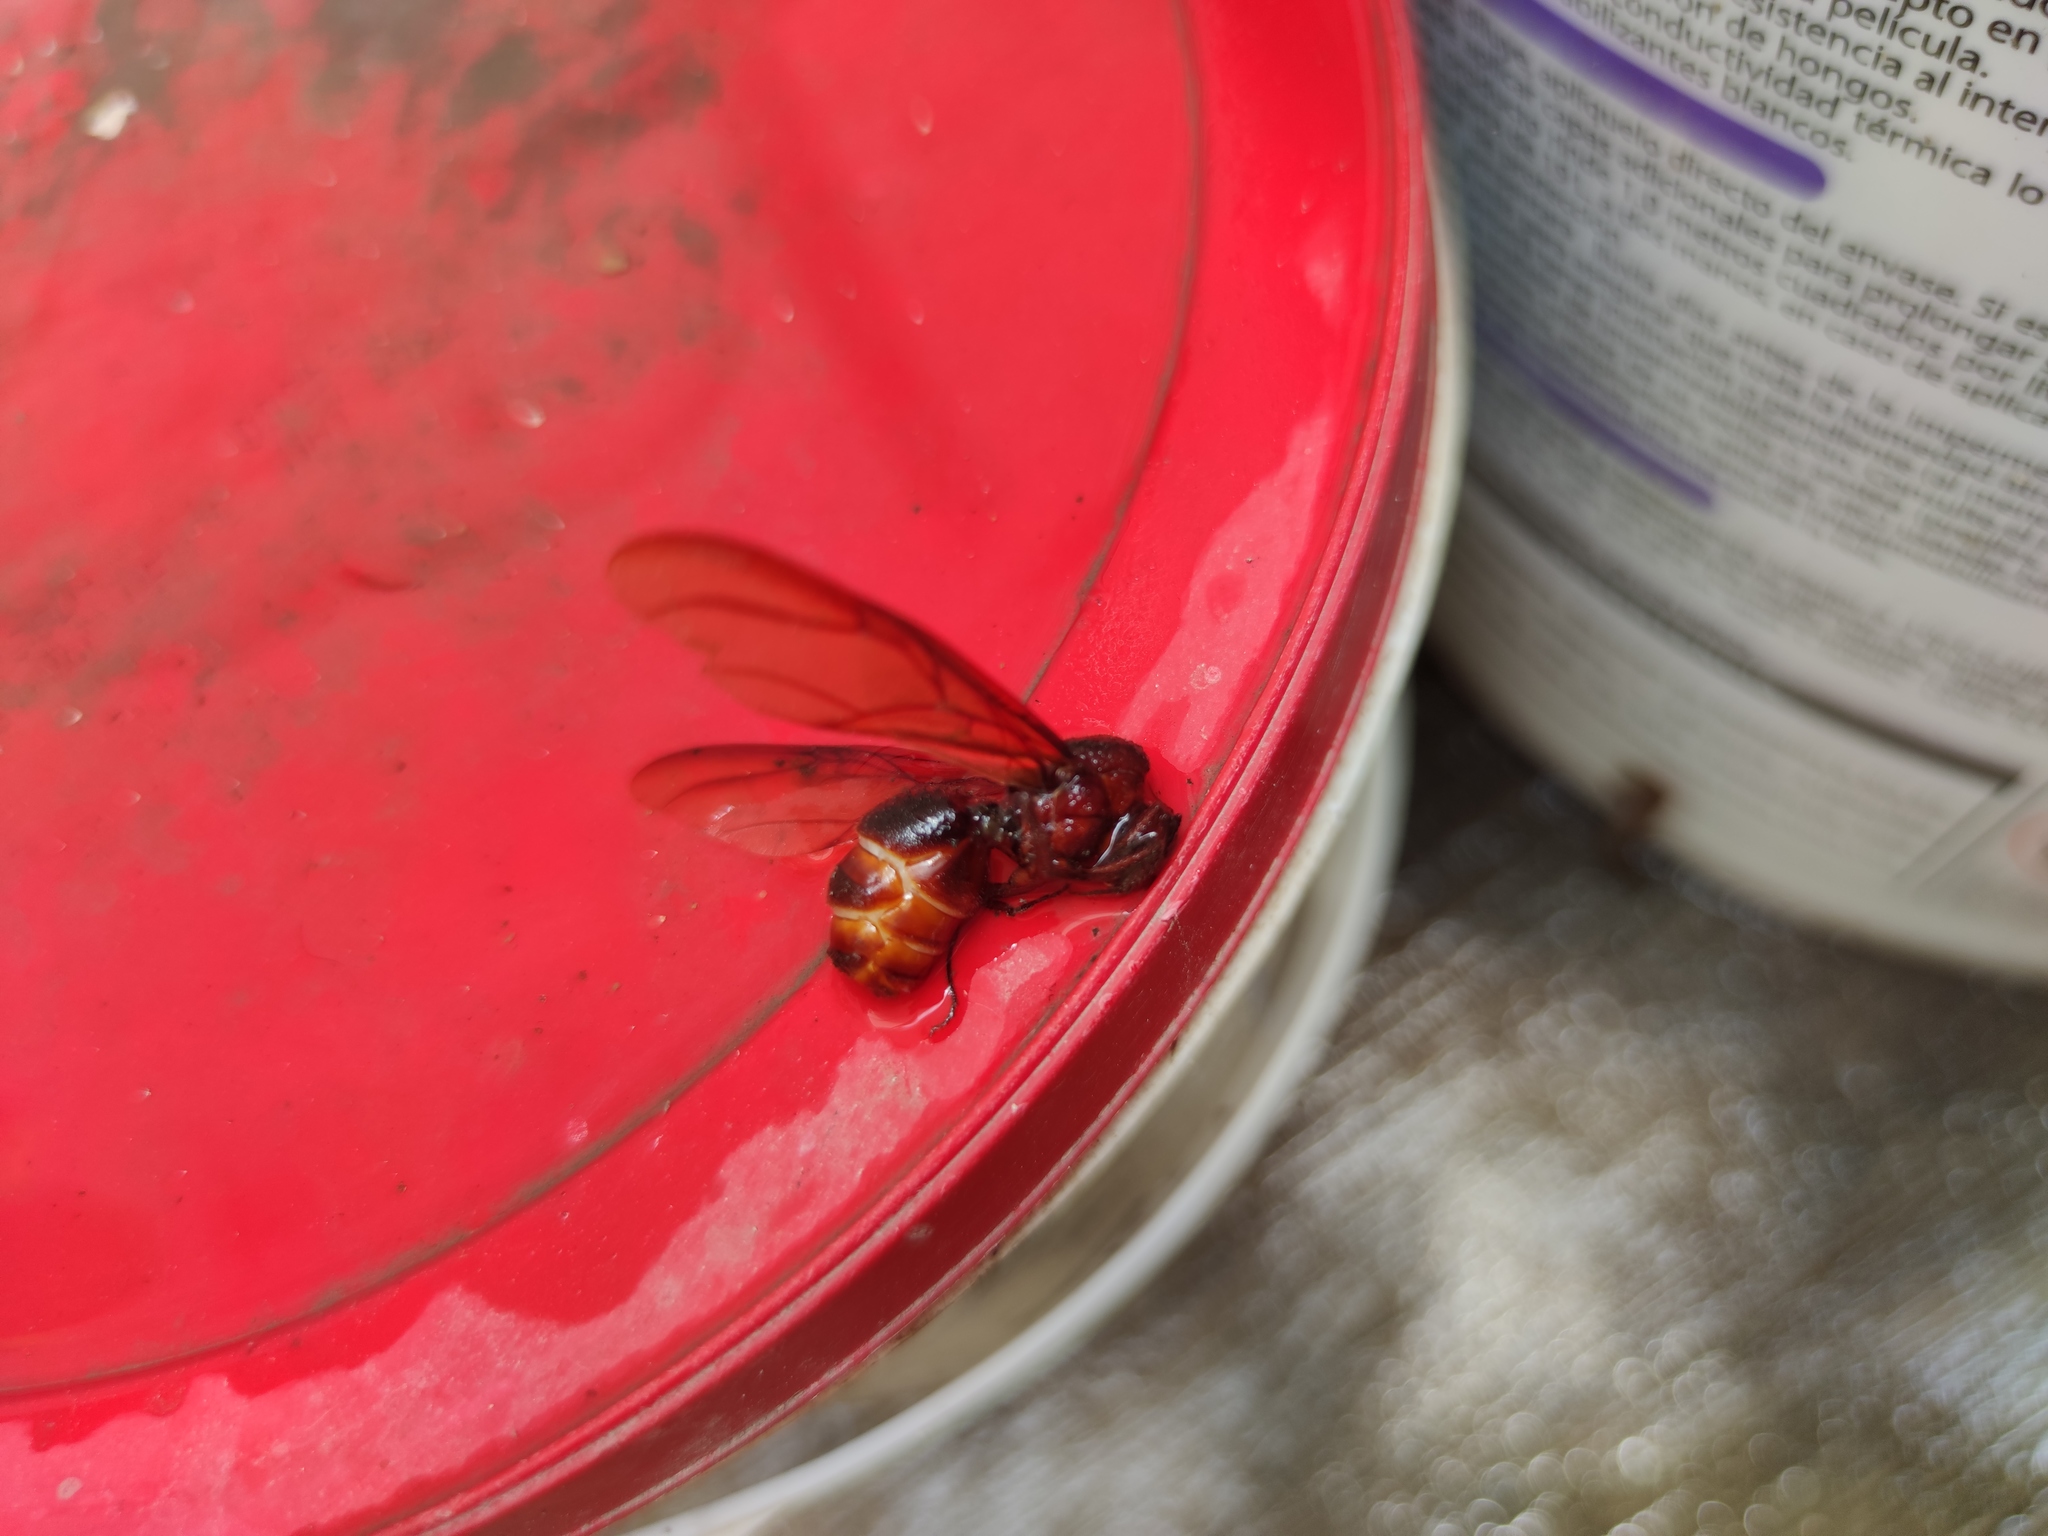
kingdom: Animalia
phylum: Arthropoda
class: Insecta
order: Hymenoptera
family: Formicidae
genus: Atta
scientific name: Atta mexicana
